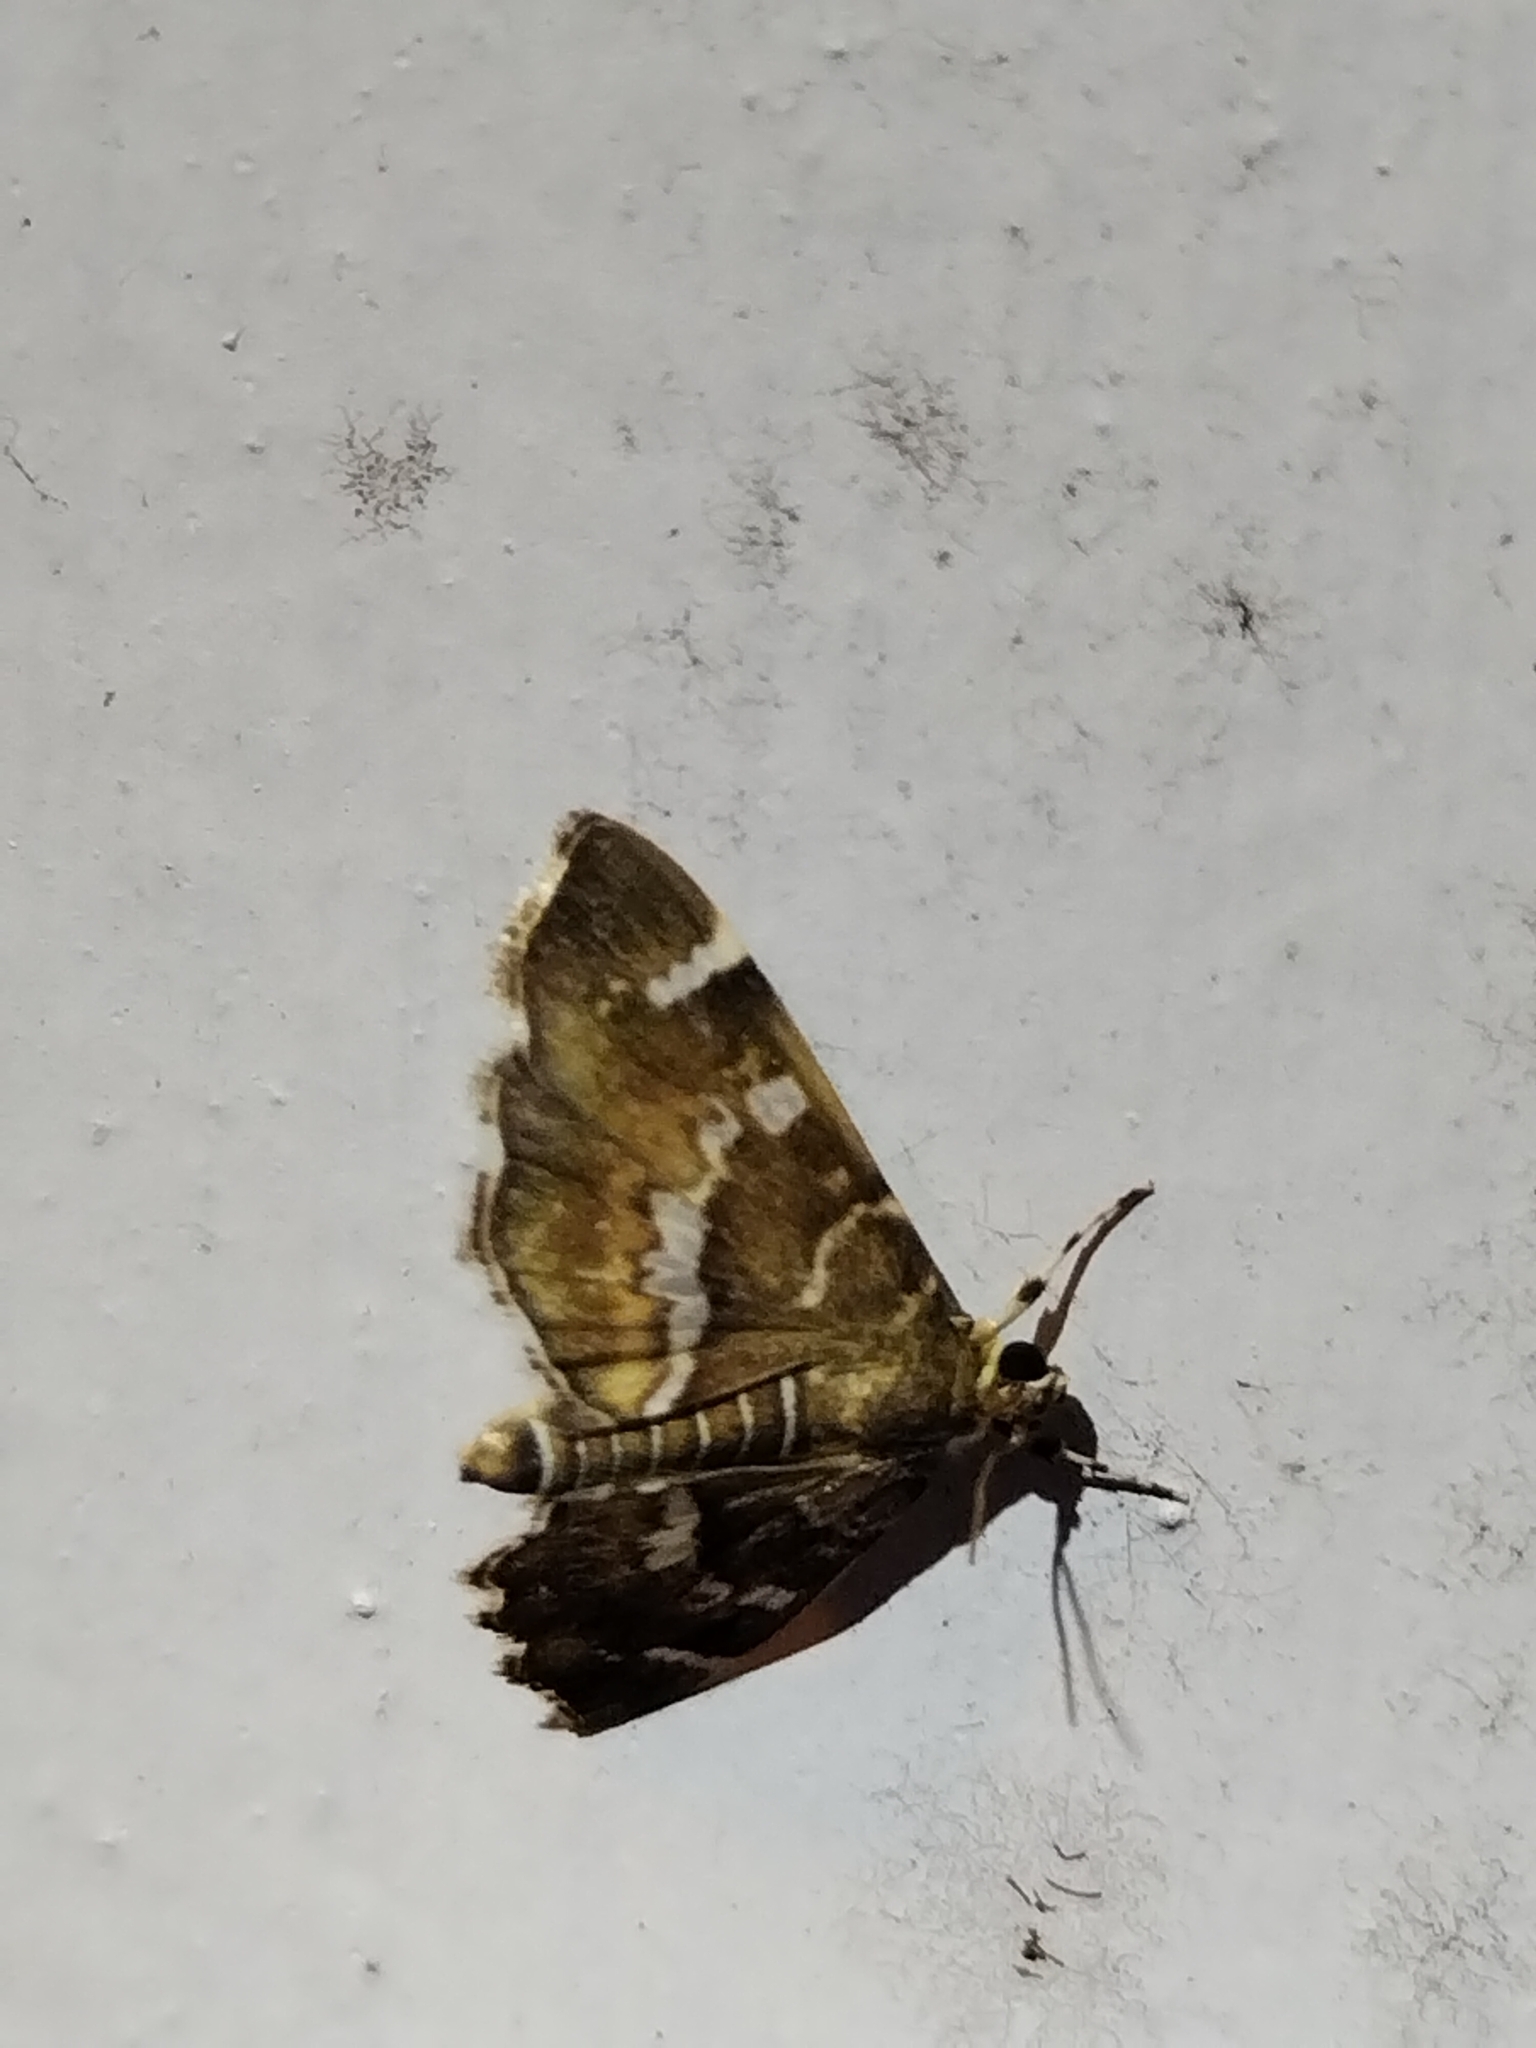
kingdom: Animalia
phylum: Arthropoda
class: Insecta
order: Lepidoptera
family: Crambidae
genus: Hymenia
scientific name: Hymenia perspectalis
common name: Spotted beet webworm
